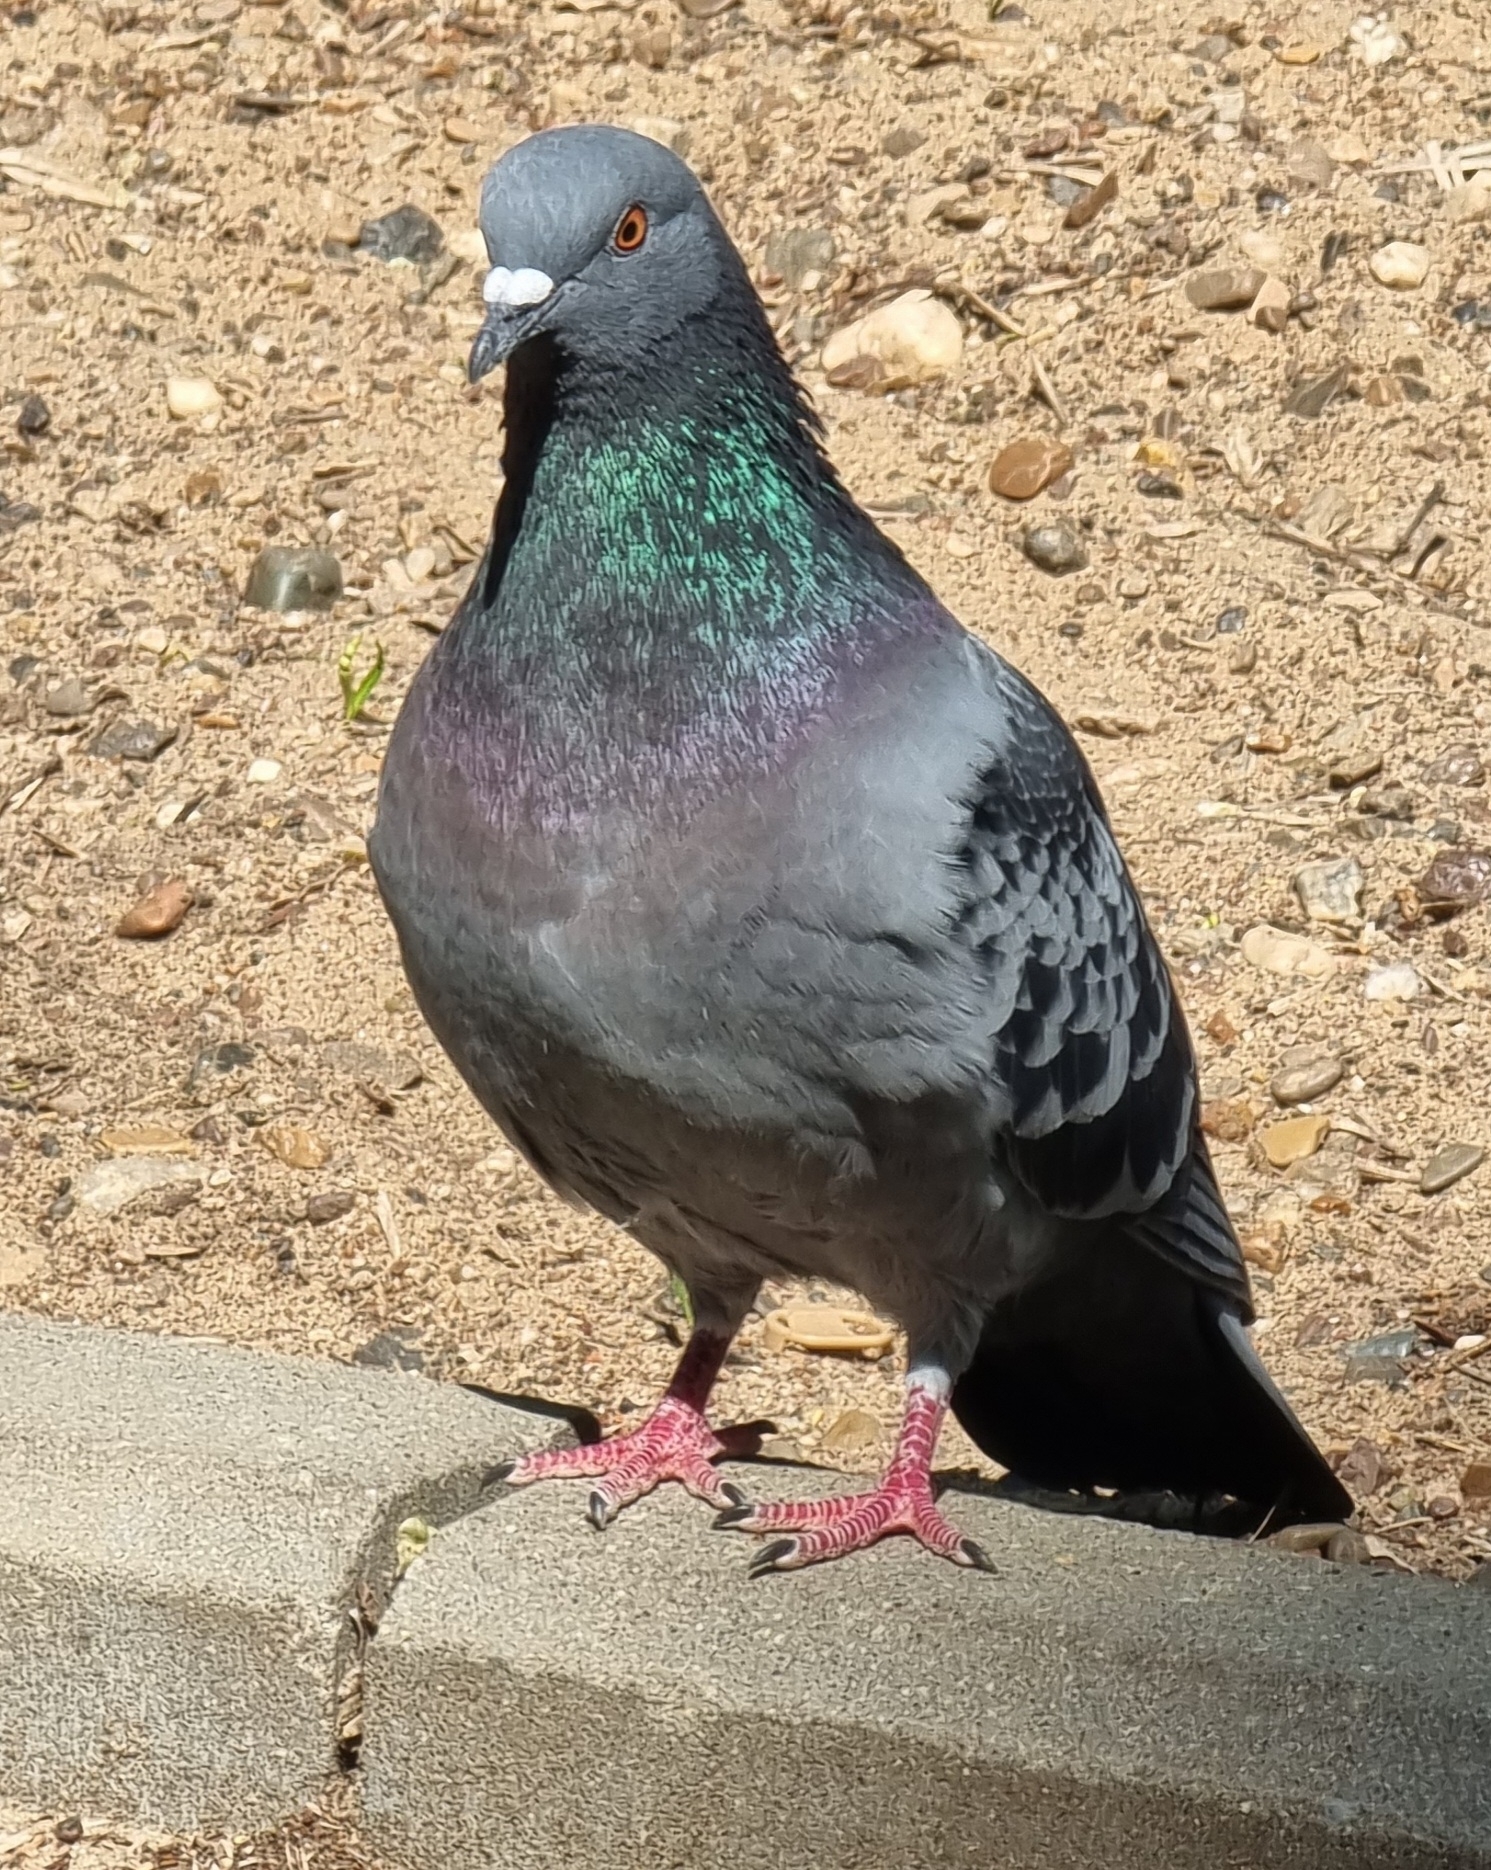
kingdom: Animalia
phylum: Chordata
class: Aves
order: Columbiformes
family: Columbidae
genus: Columba
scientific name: Columba livia
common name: Rock pigeon
